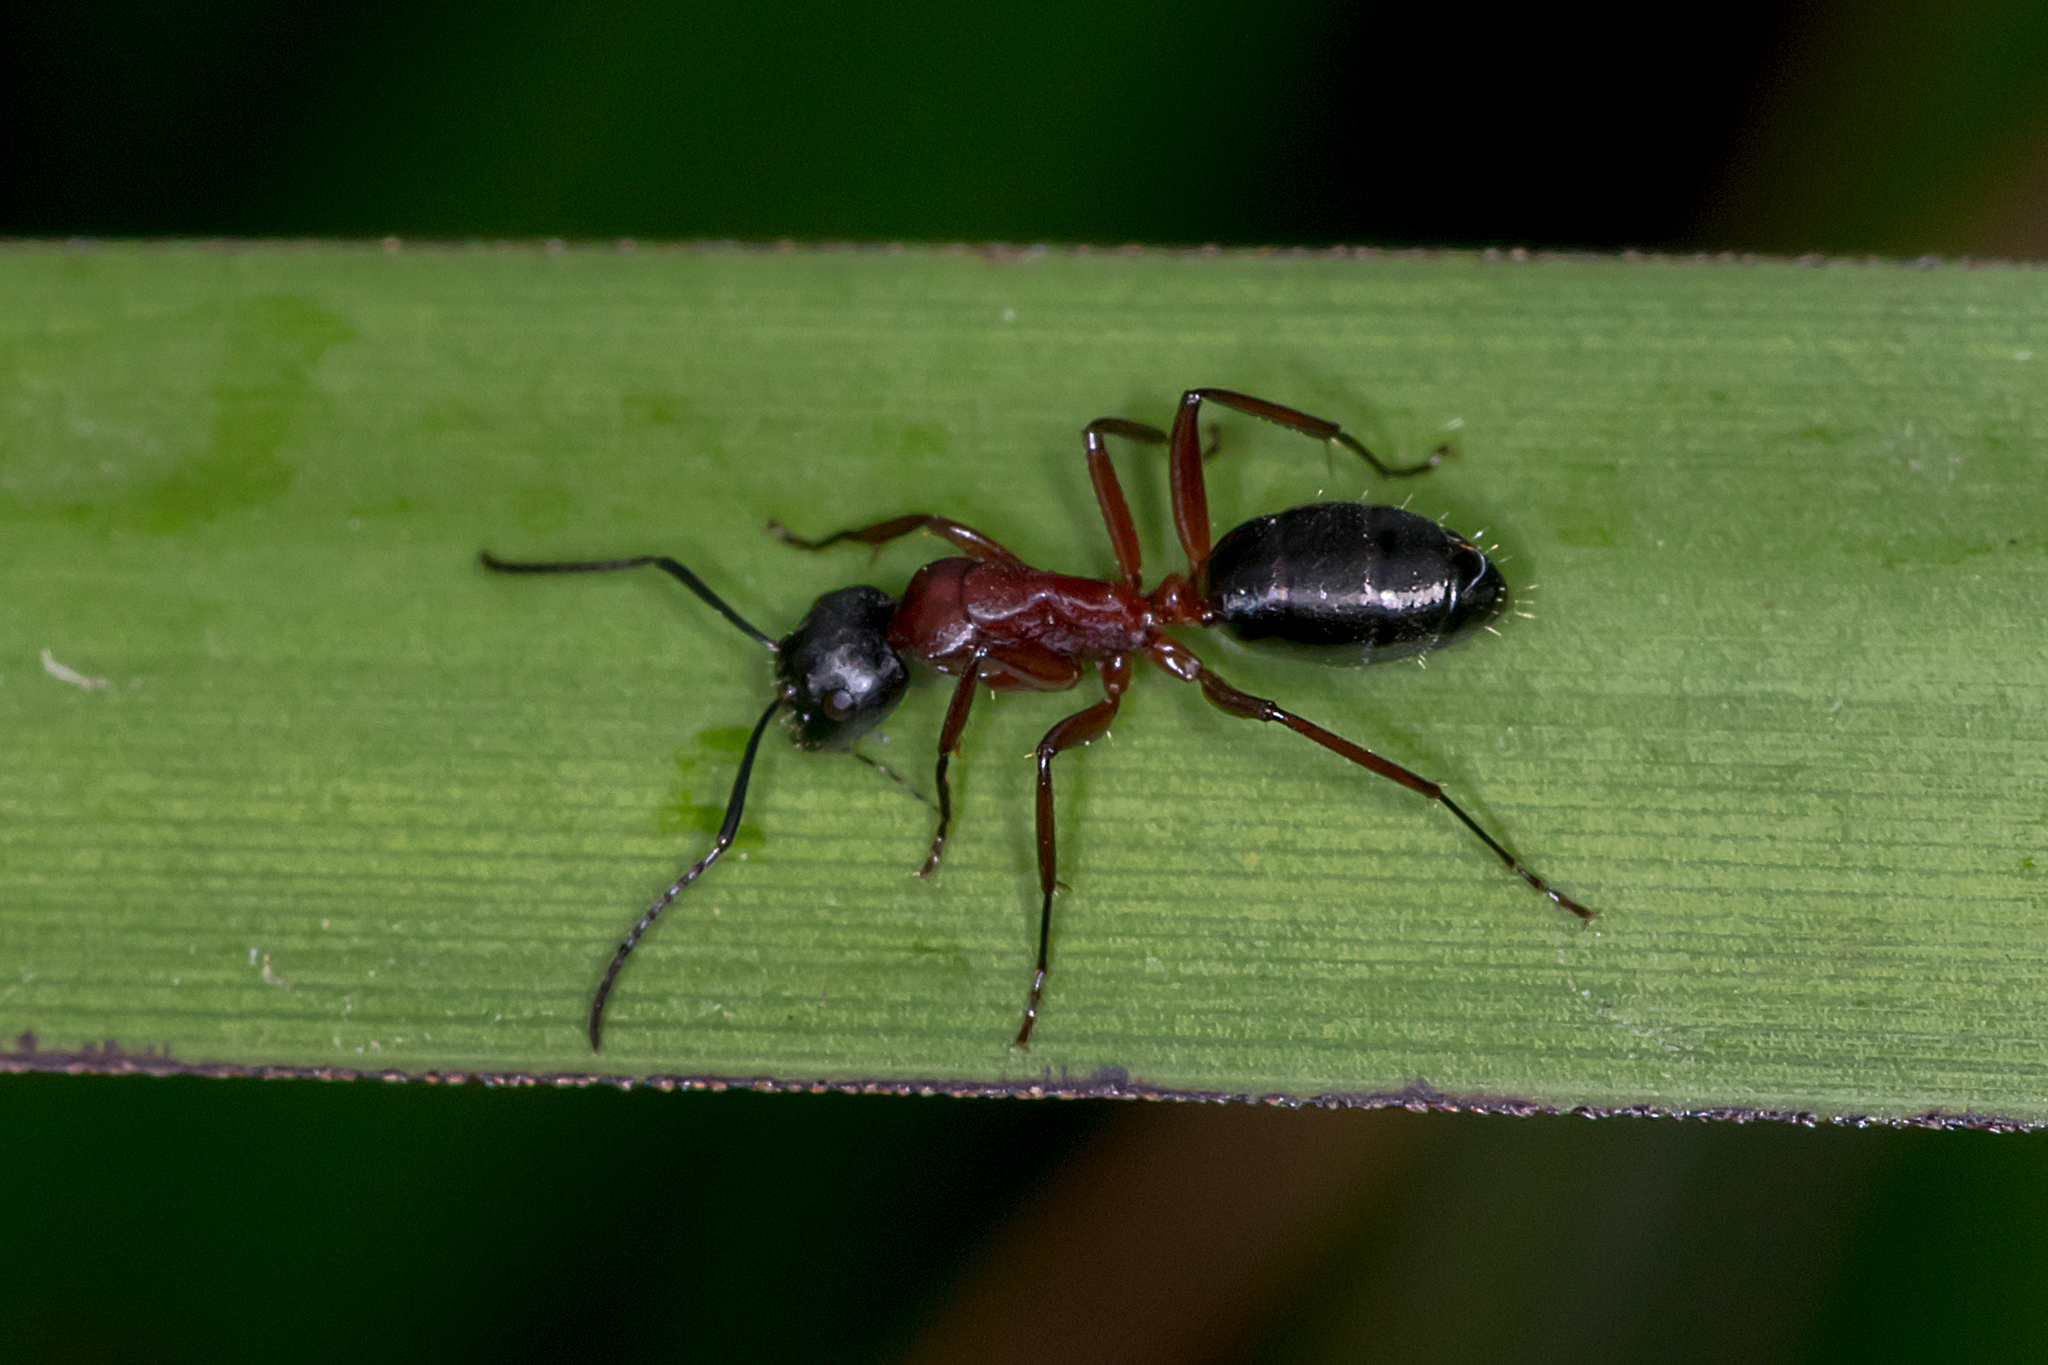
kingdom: Animalia
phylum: Arthropoda
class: Insecta
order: Hymenoptera
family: Formicidae
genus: Camponotus
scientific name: Camponotus innexus
